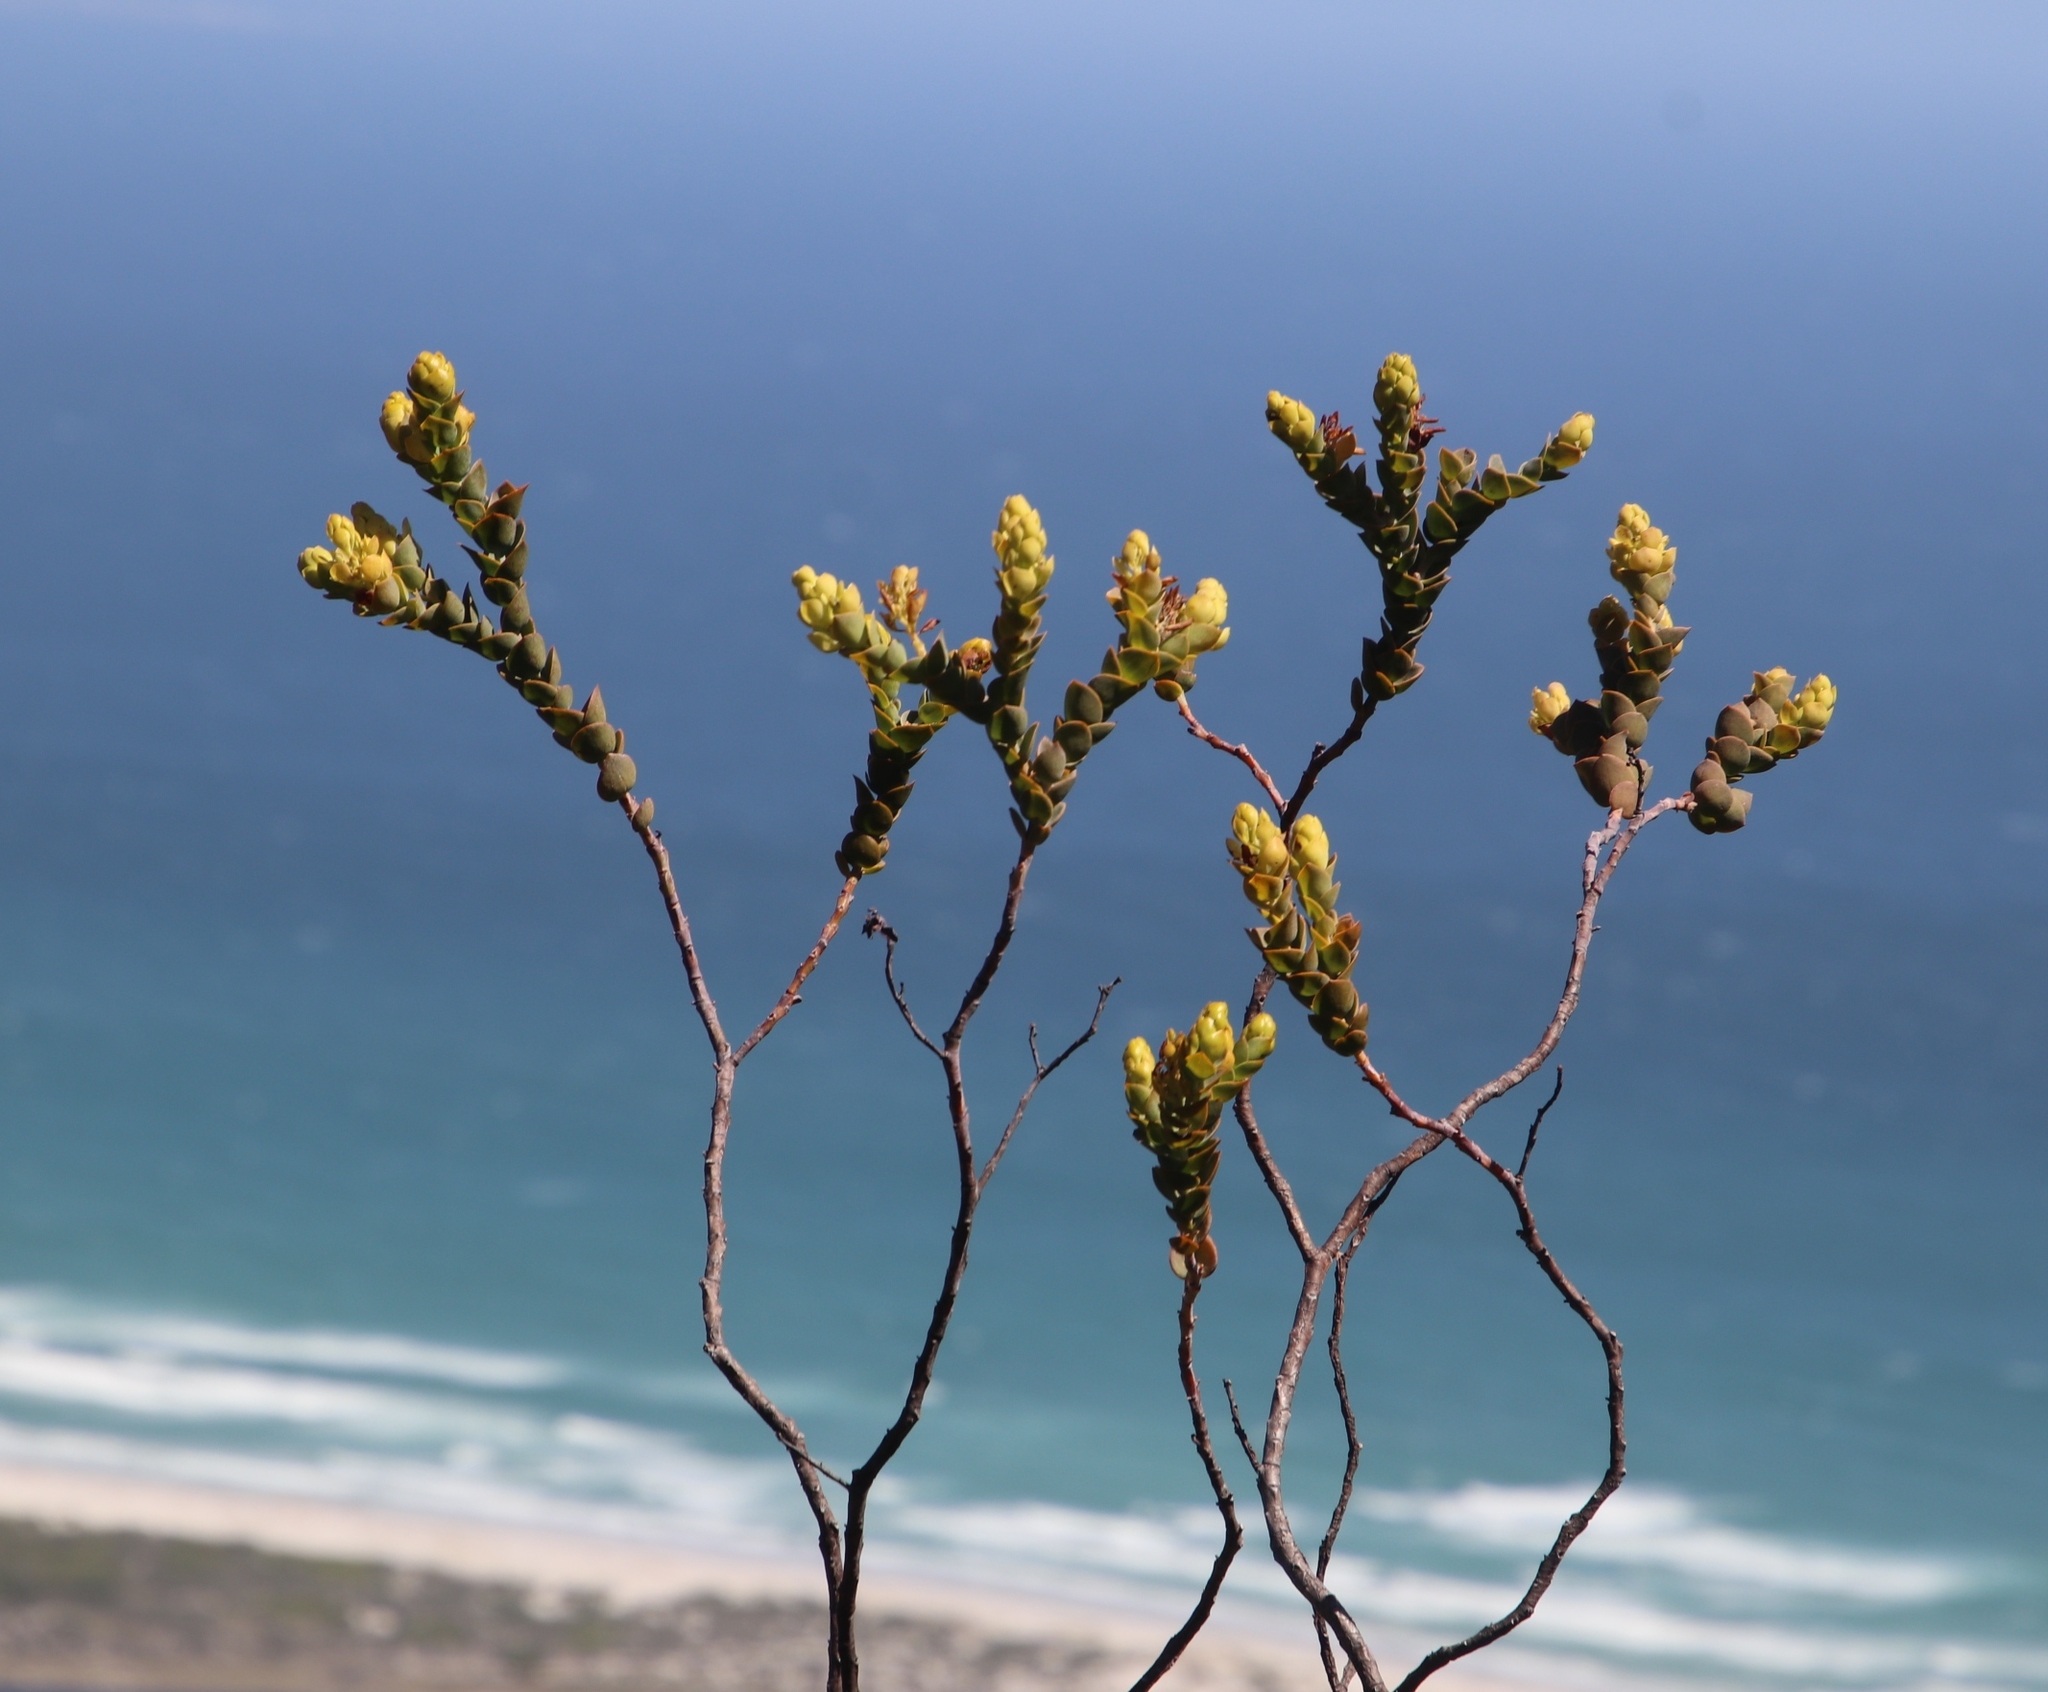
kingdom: Plantae
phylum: Tracheophyta
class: Magnoliopsida
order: Santalales
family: Thesiaceae
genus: Thesium
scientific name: Thesium euphorbioides
